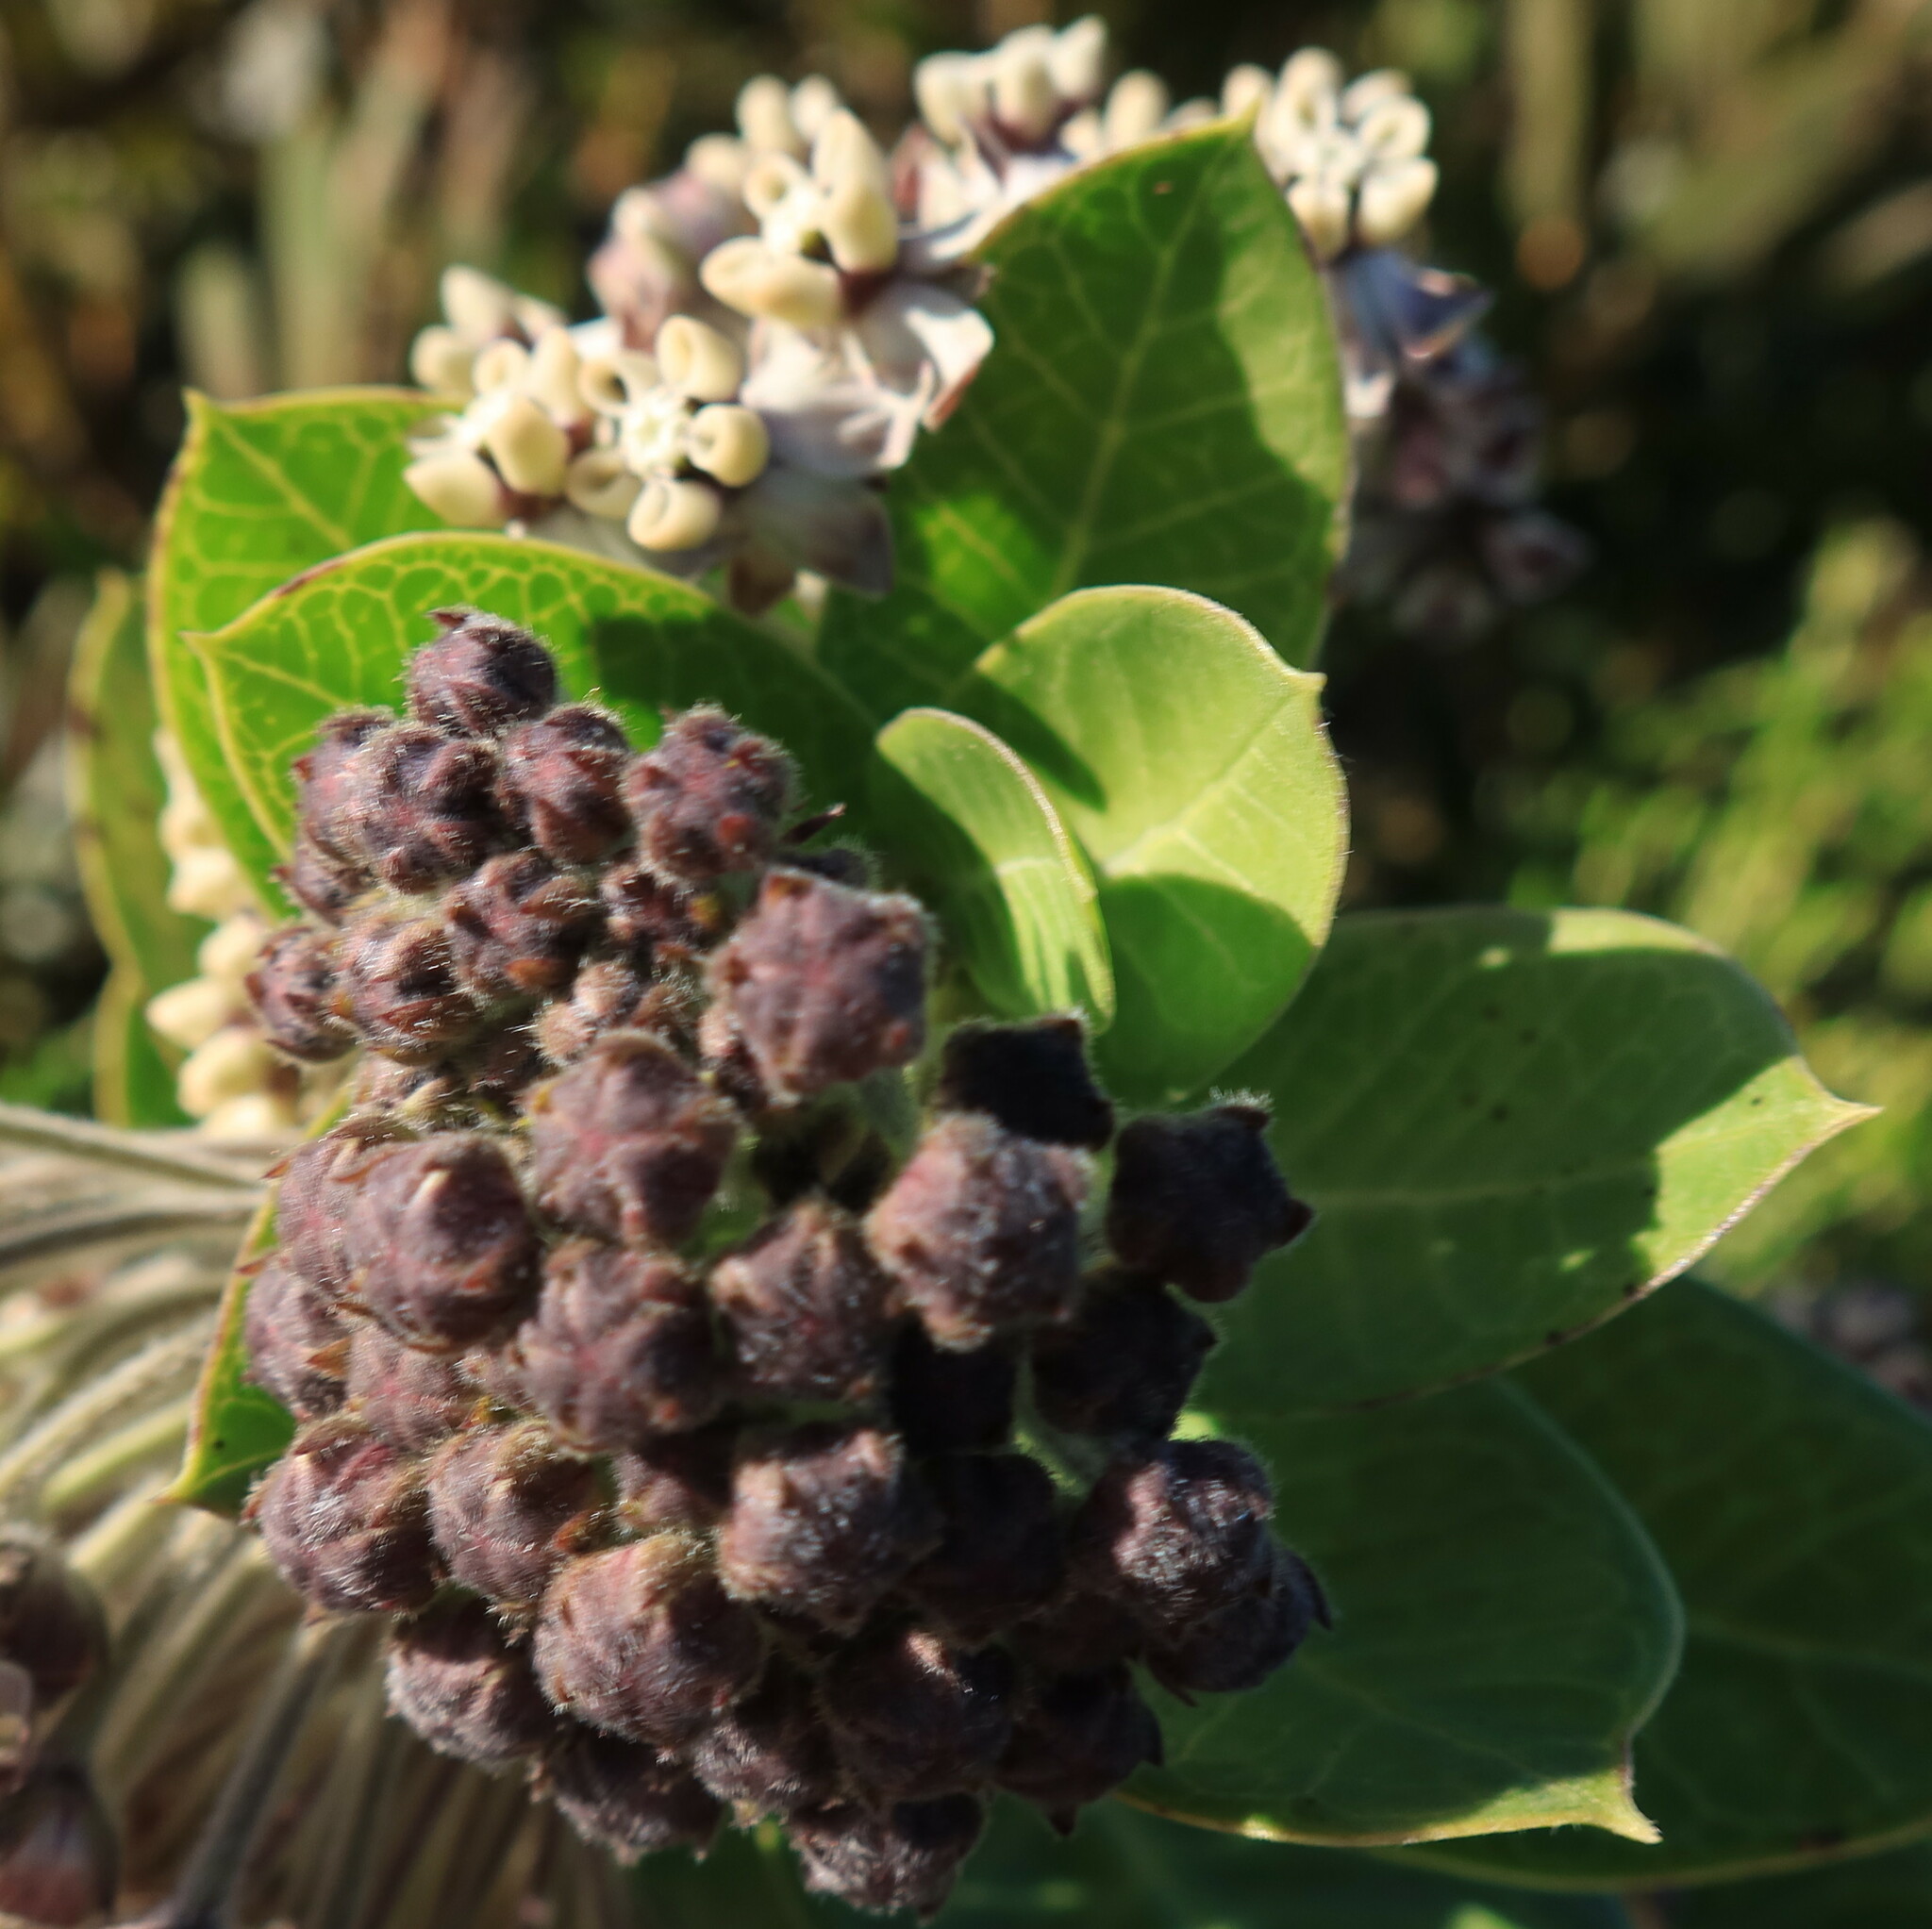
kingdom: Plantae
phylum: Tracheophyta
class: Magnoliopsida
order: Gentianales
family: Apocynaceae
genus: Gomphocarpus
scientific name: Gomphocarpus cancellatus
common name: Wild cotton
